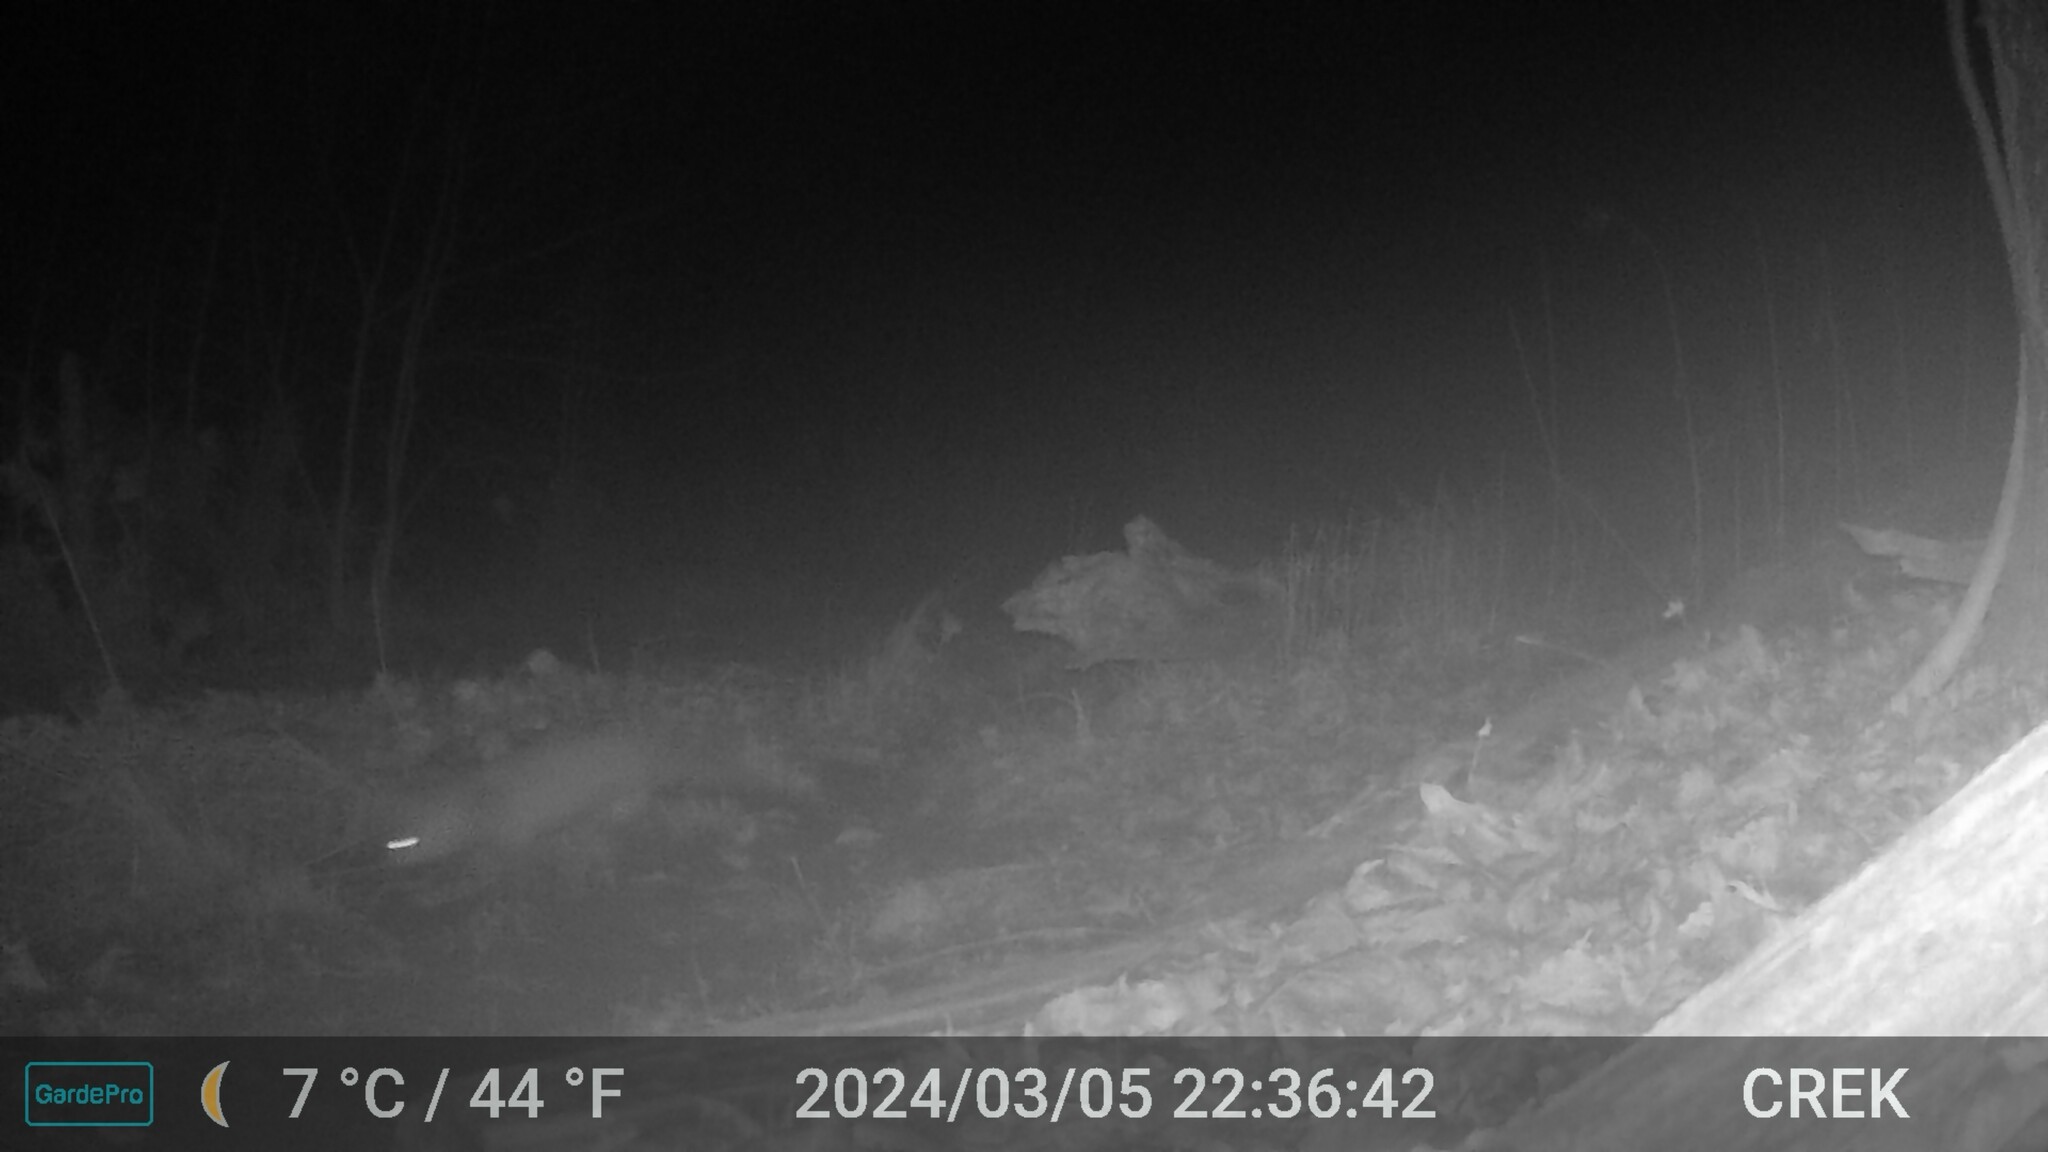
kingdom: Animalia
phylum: Chordata
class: Mammalia
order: Carnivora
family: Canidae
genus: Vulpes
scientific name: Vulpes vulpes
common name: Red fox
